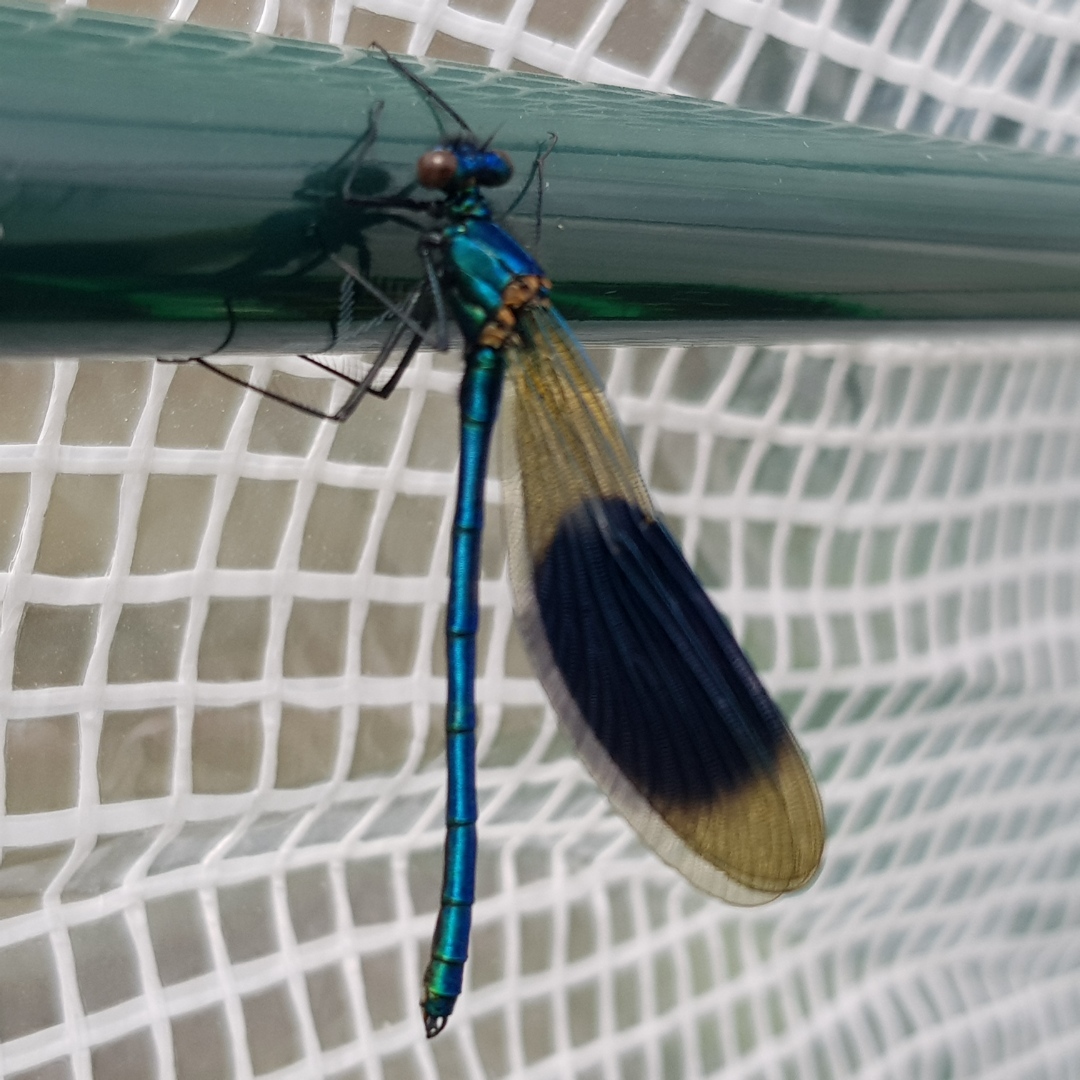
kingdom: Animalia
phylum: Arthropoda
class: Insecta
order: Odonata
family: Calopterygidae
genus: Calopteryx
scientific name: Calopteryx splendens
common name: Banded demoiselle
